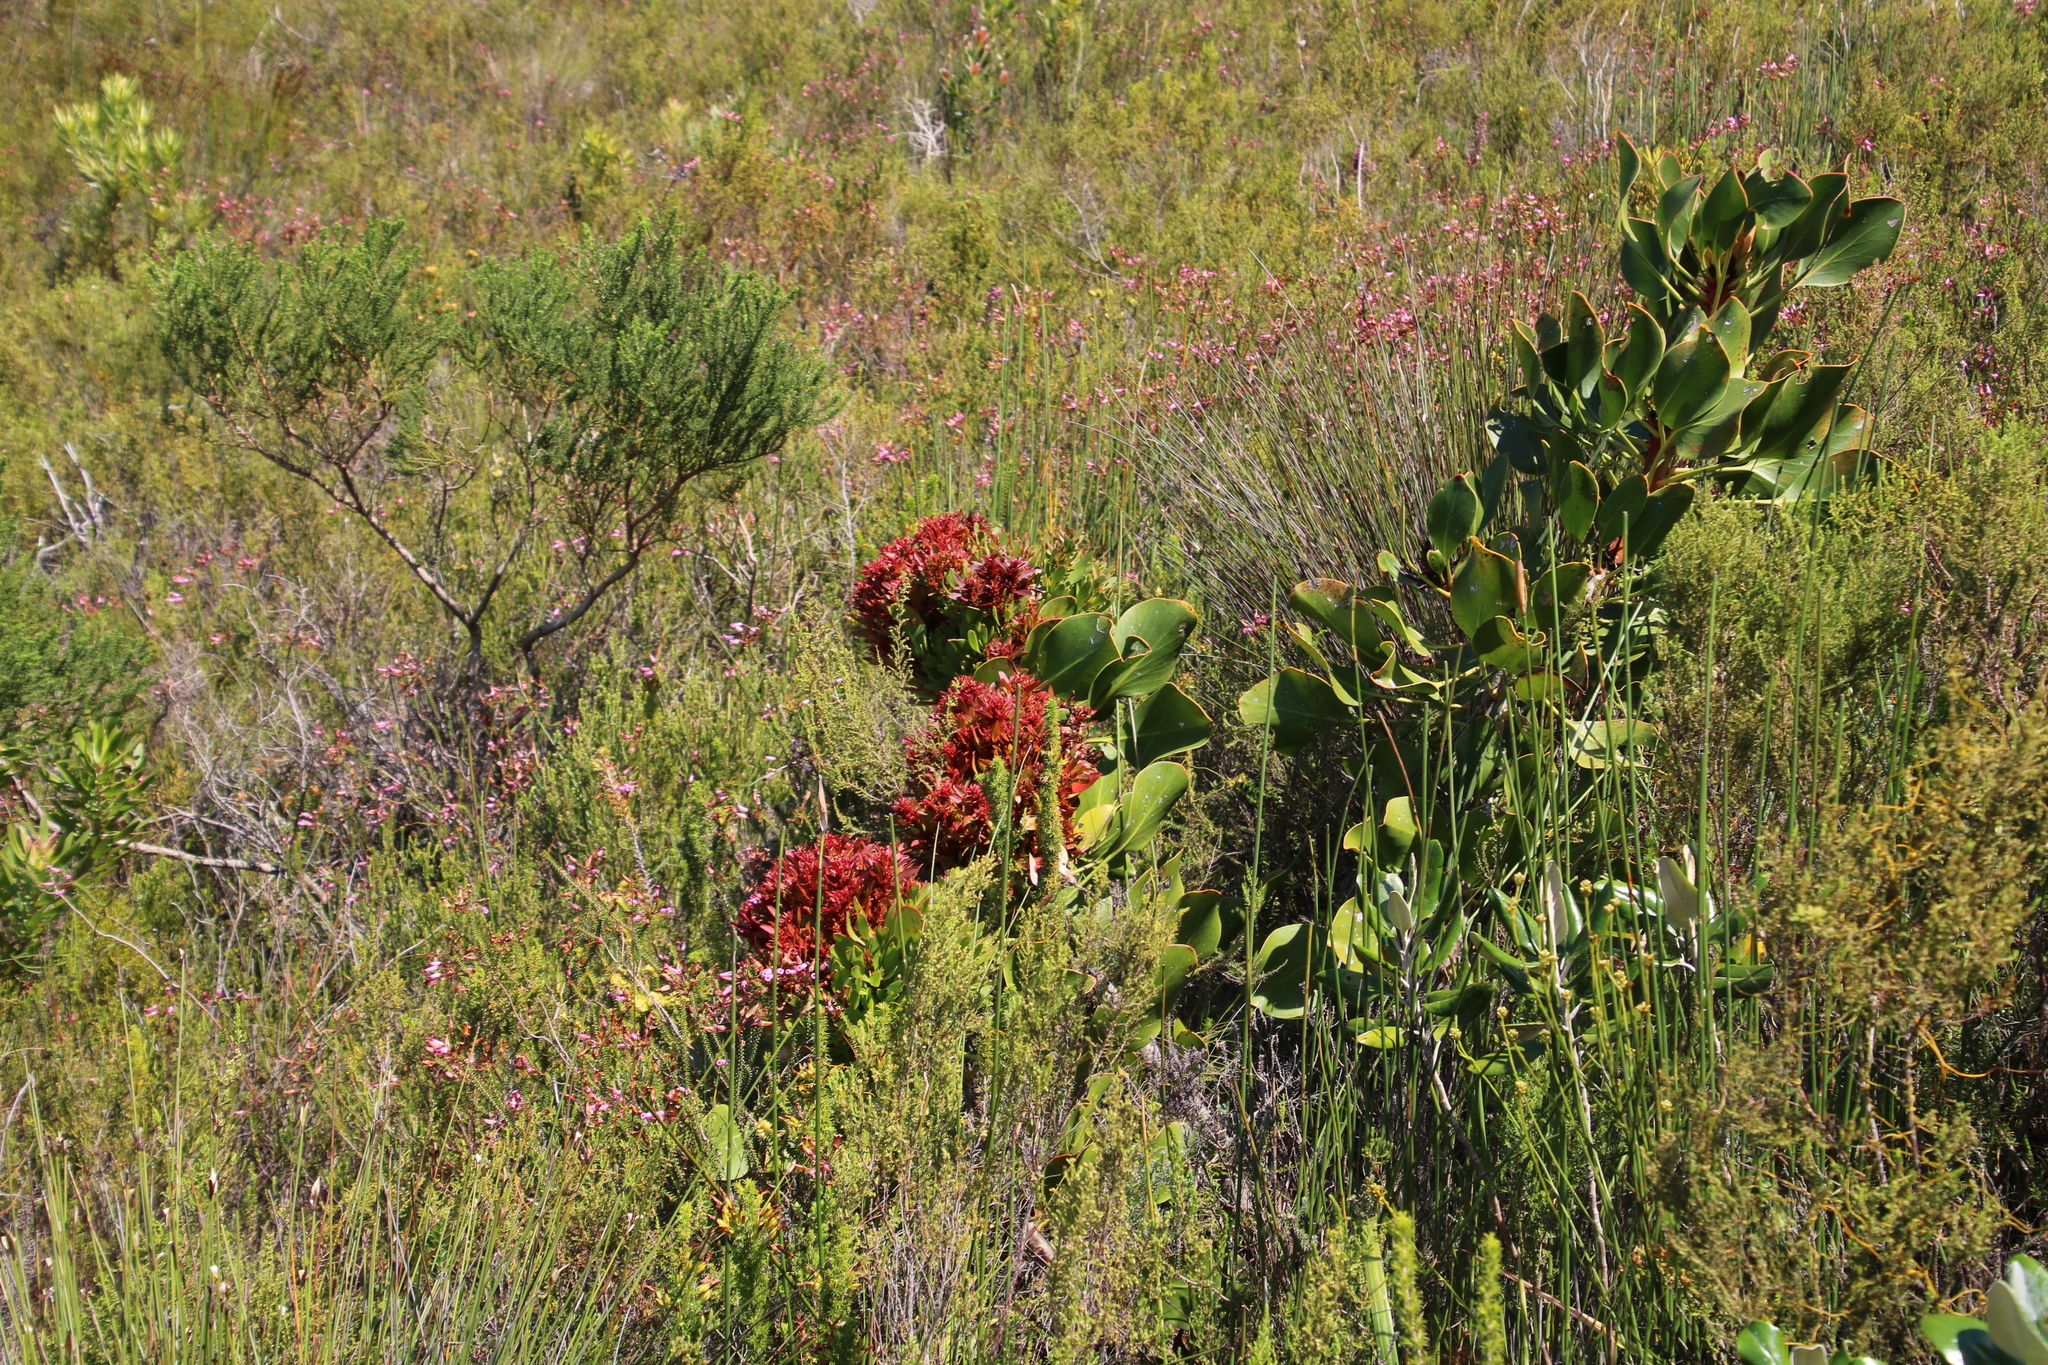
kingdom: Bacteria
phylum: Firmicutes
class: Bacilli
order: Acholeplasmatales
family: Acholeplasmataceae
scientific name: Acholeplasmataceae
